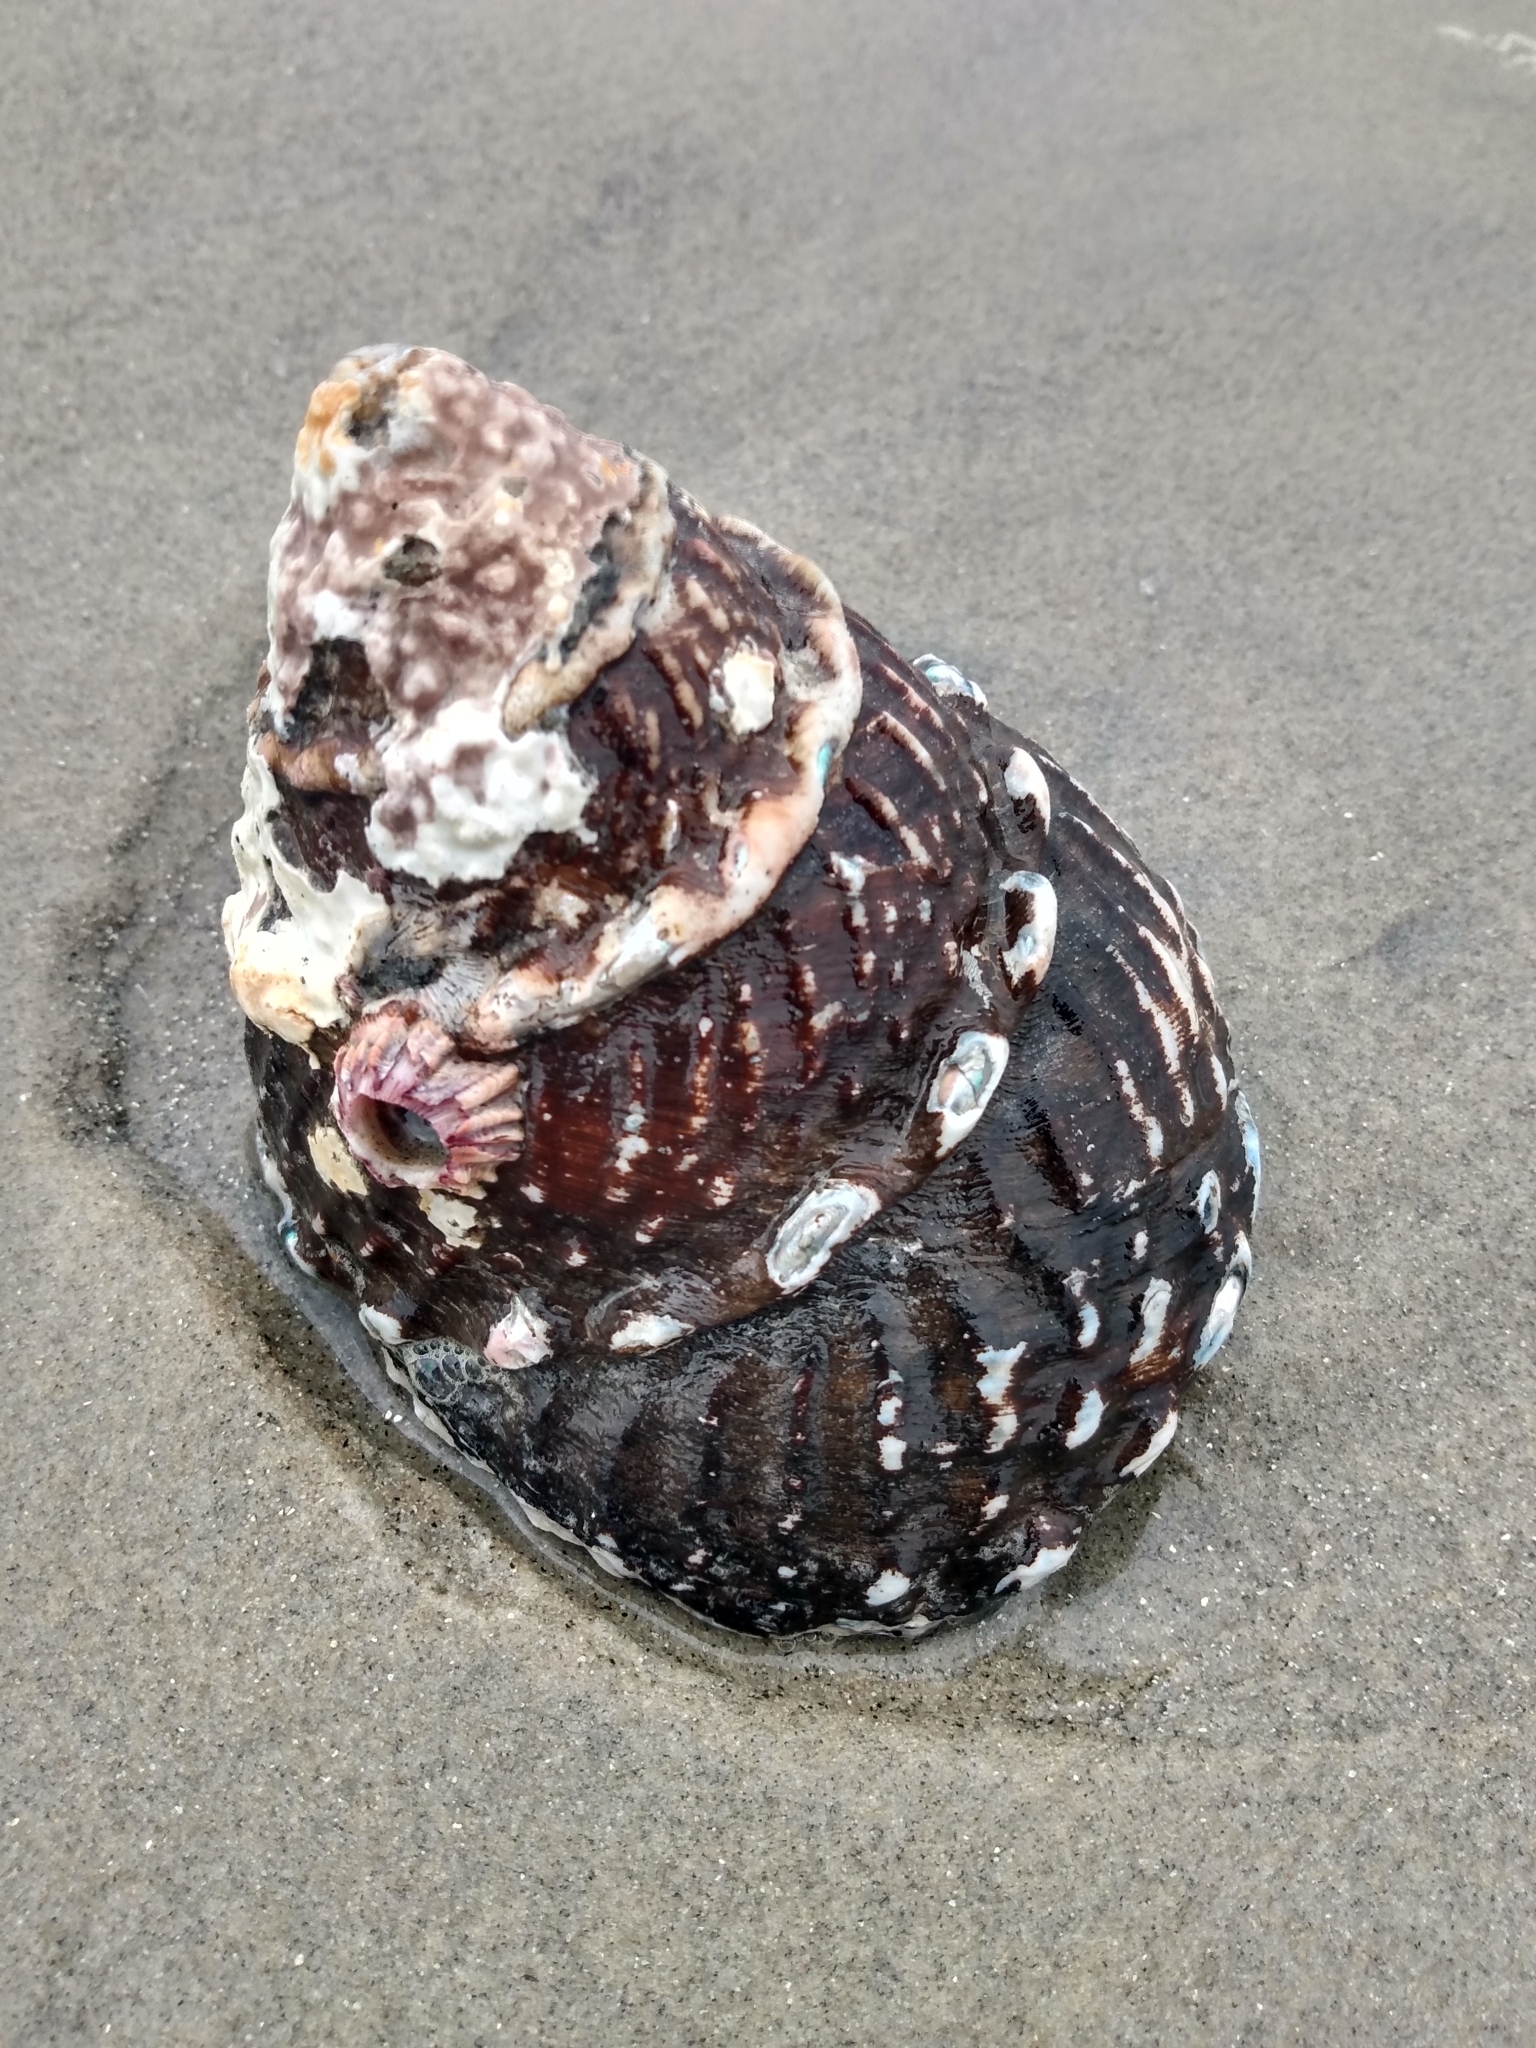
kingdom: Animalia
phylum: Mollusca
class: Gastropoda
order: Trochida
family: Turbinidae
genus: Megastraea
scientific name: Megastraea undosa
